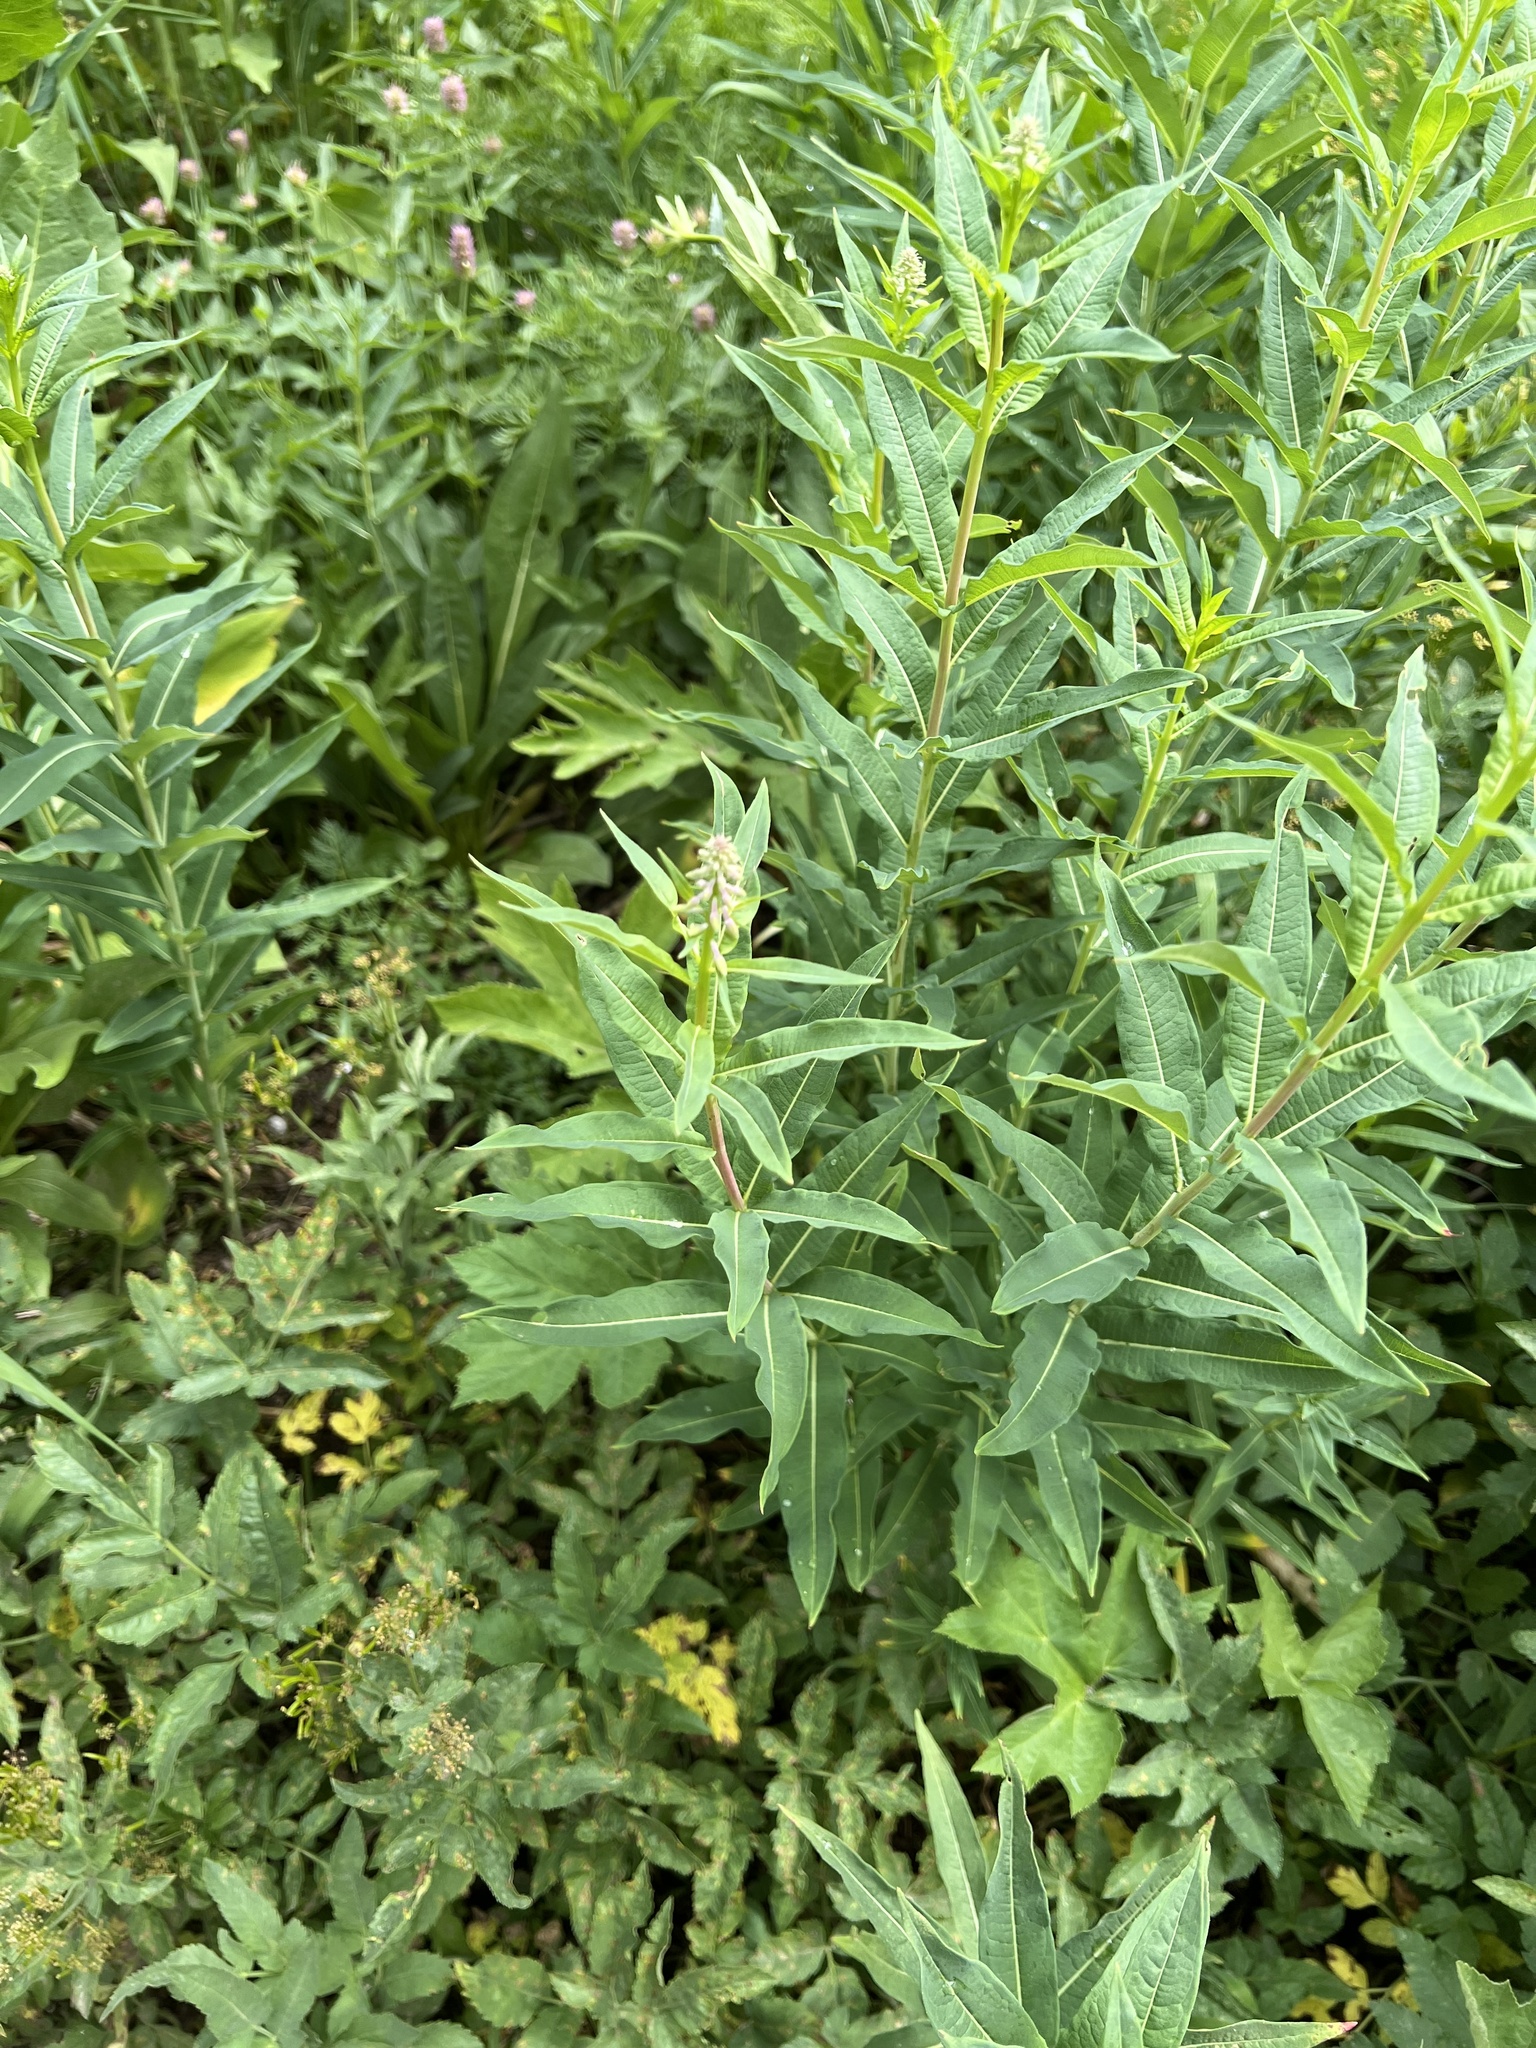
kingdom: Plantae
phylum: Tracheophyta
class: Magnoliopsida
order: Myrtales
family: Onagraceae
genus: Chamaenerion
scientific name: Chamaenerion angustifolium
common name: Fireweed
